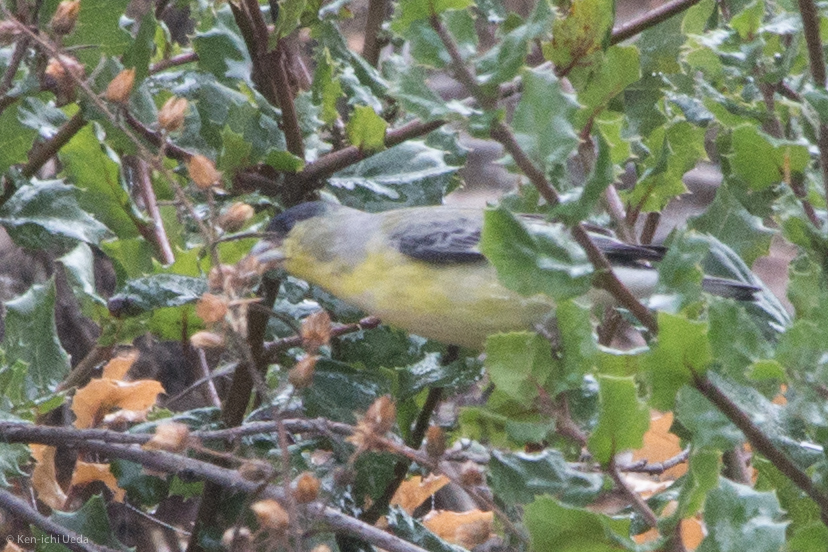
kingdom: Animalia
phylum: Chordata
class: Aves
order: Passeriformes
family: Fringillidae
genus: Spinus
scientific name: Spinus psaltria
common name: Lesser goldfinch
